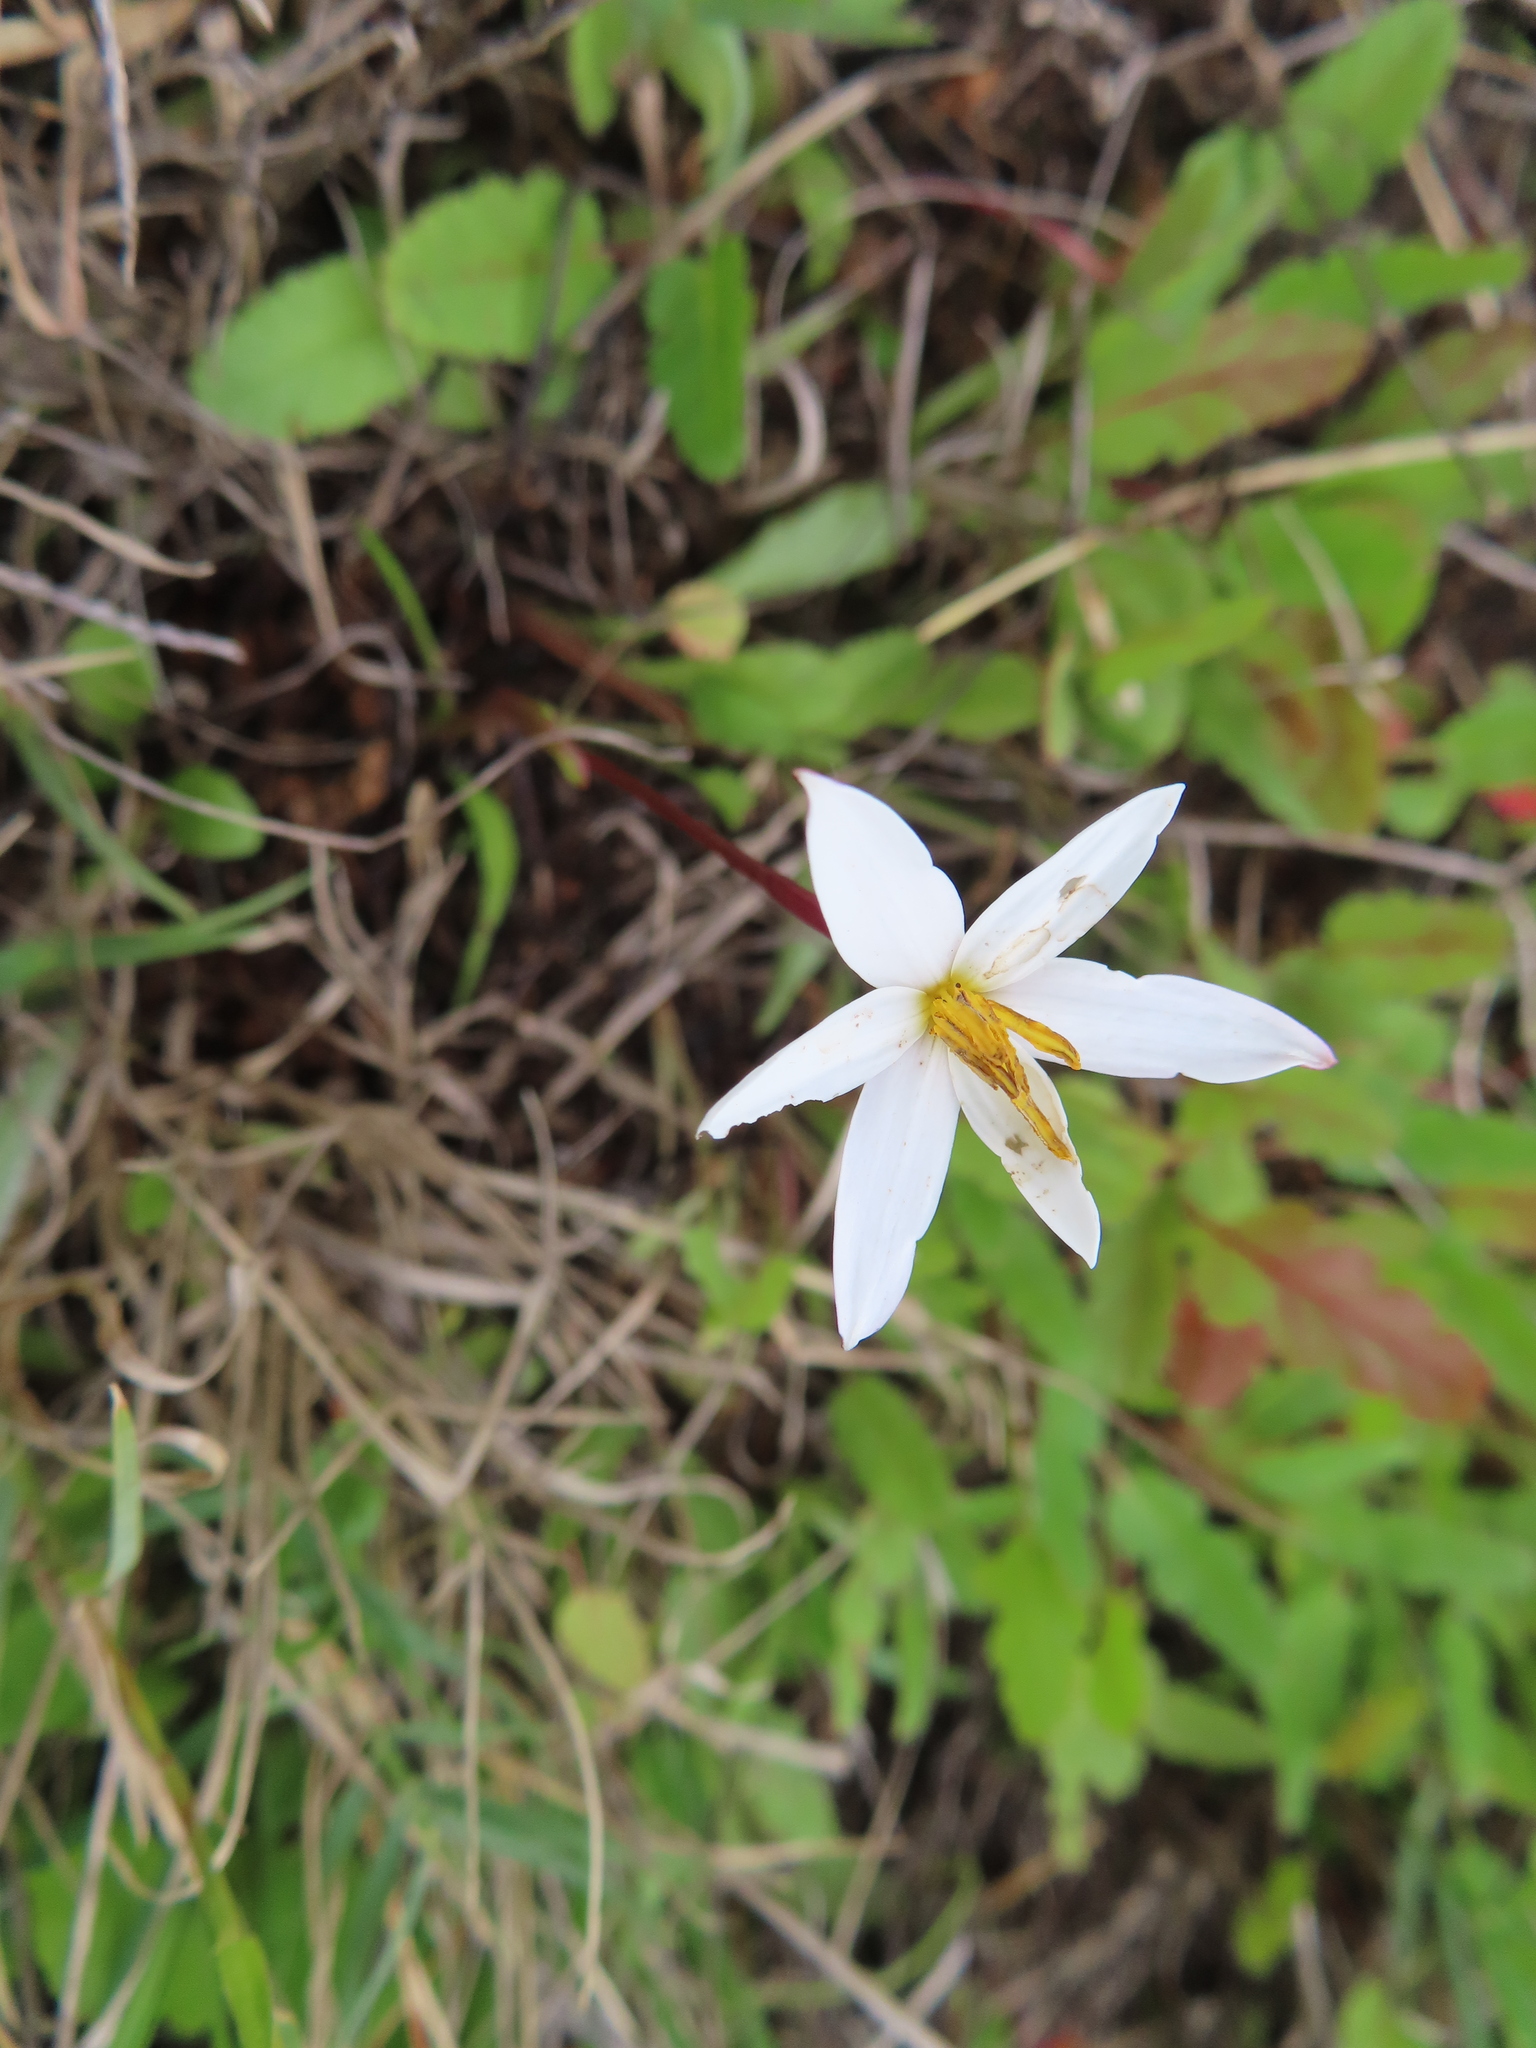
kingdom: Plantae
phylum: Tracheophyta
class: Liliopsida
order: Asparagales
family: Hypoxidaceae
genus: Pauridia
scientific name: Pauridia alba
